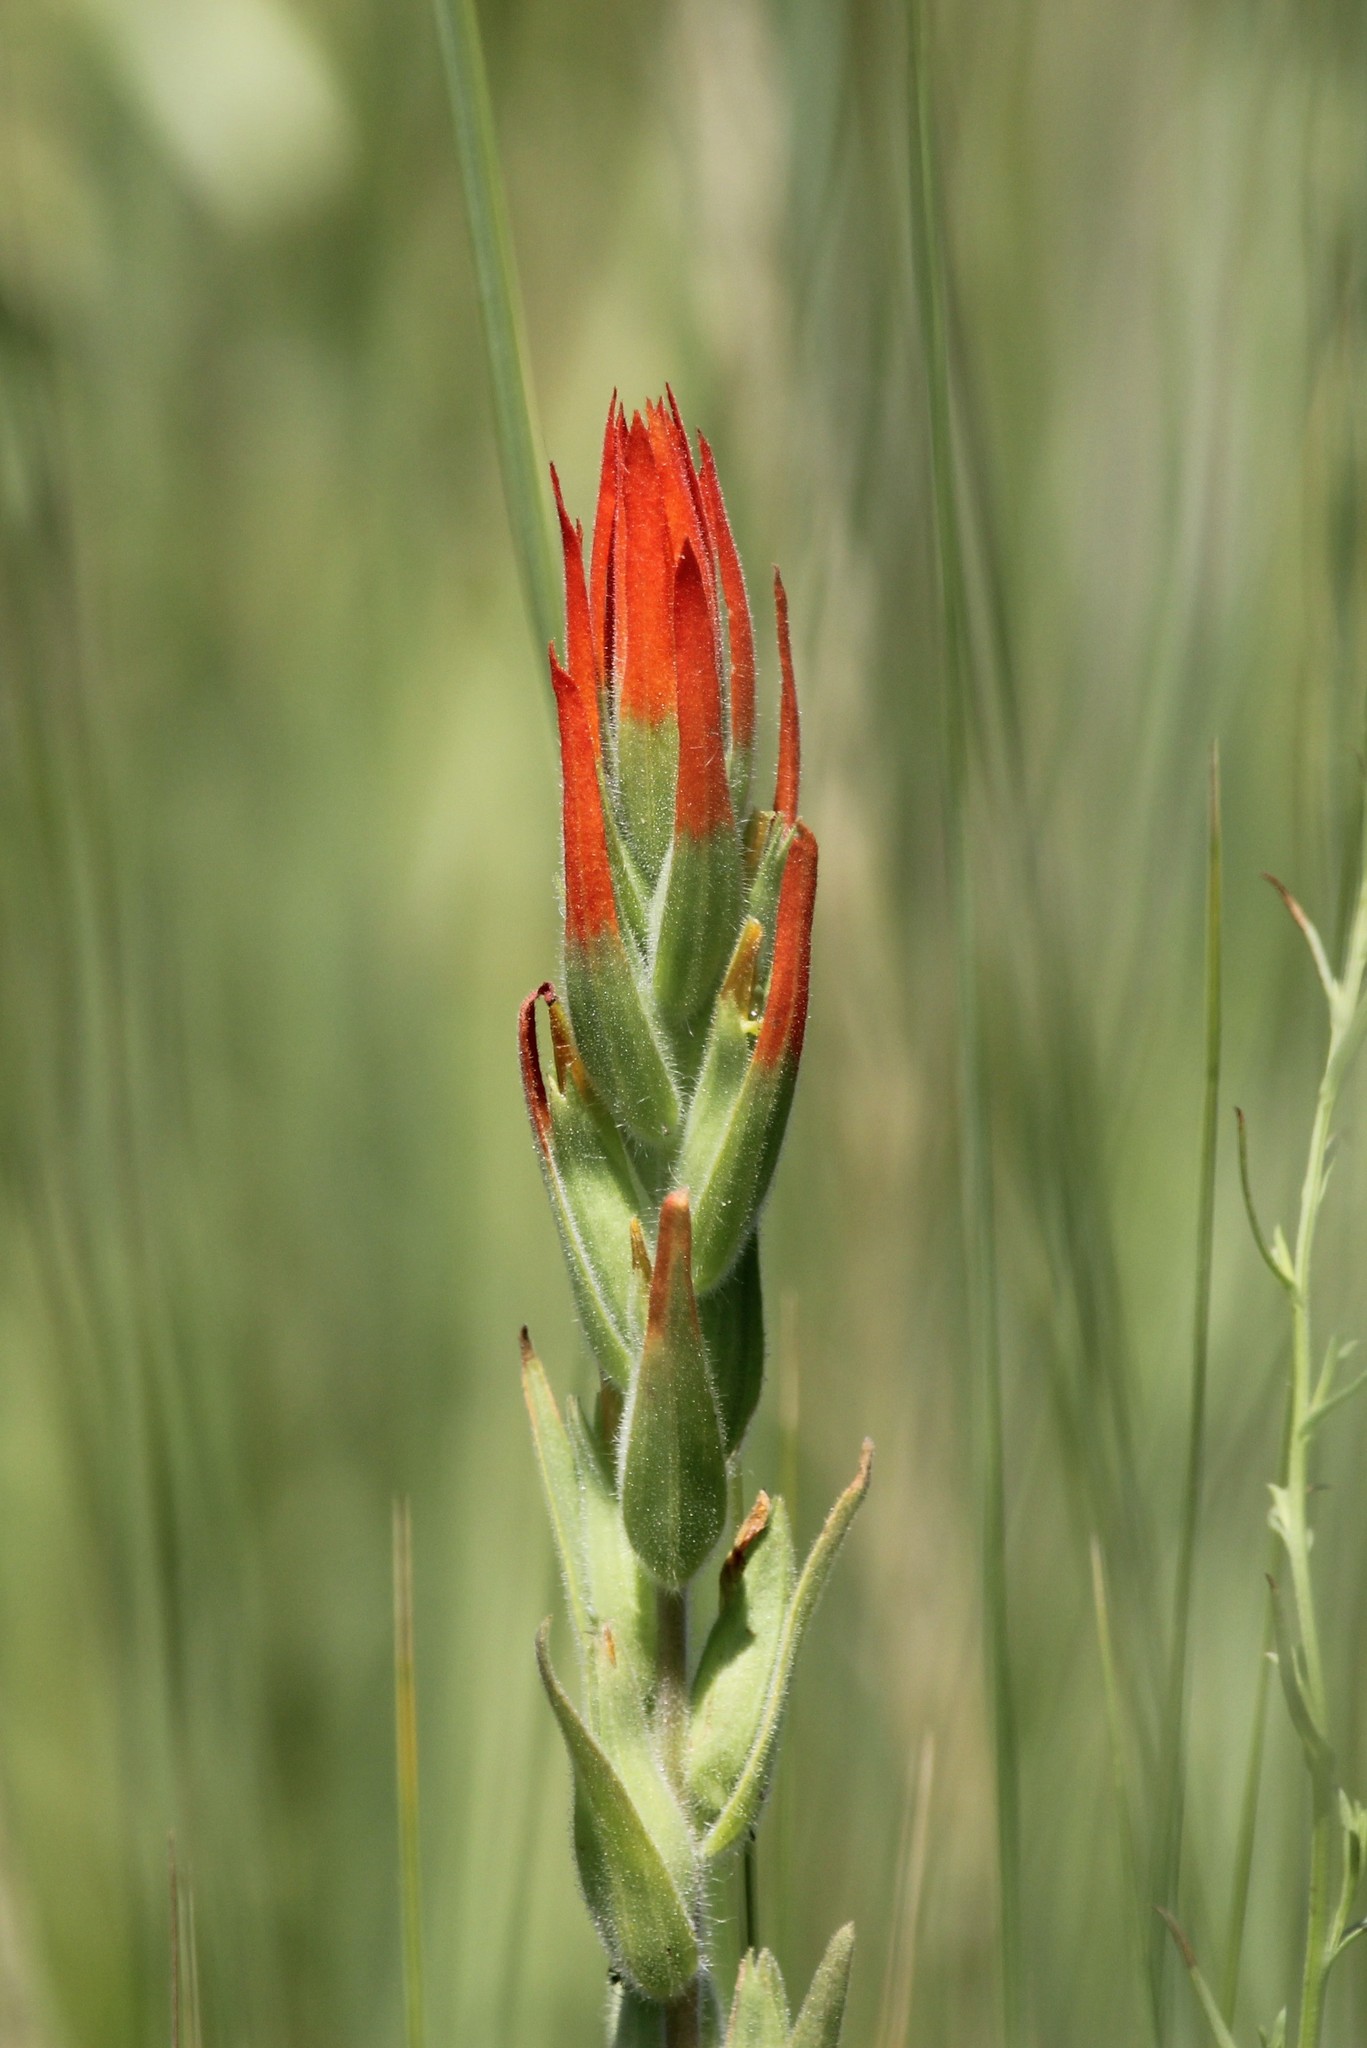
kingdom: Plantae
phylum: Tracheophyta
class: Magnoliopsida
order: Lamiales
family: Orobanchaceae
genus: Castilleja
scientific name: Castilleja minor
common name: Seep paintbrush
